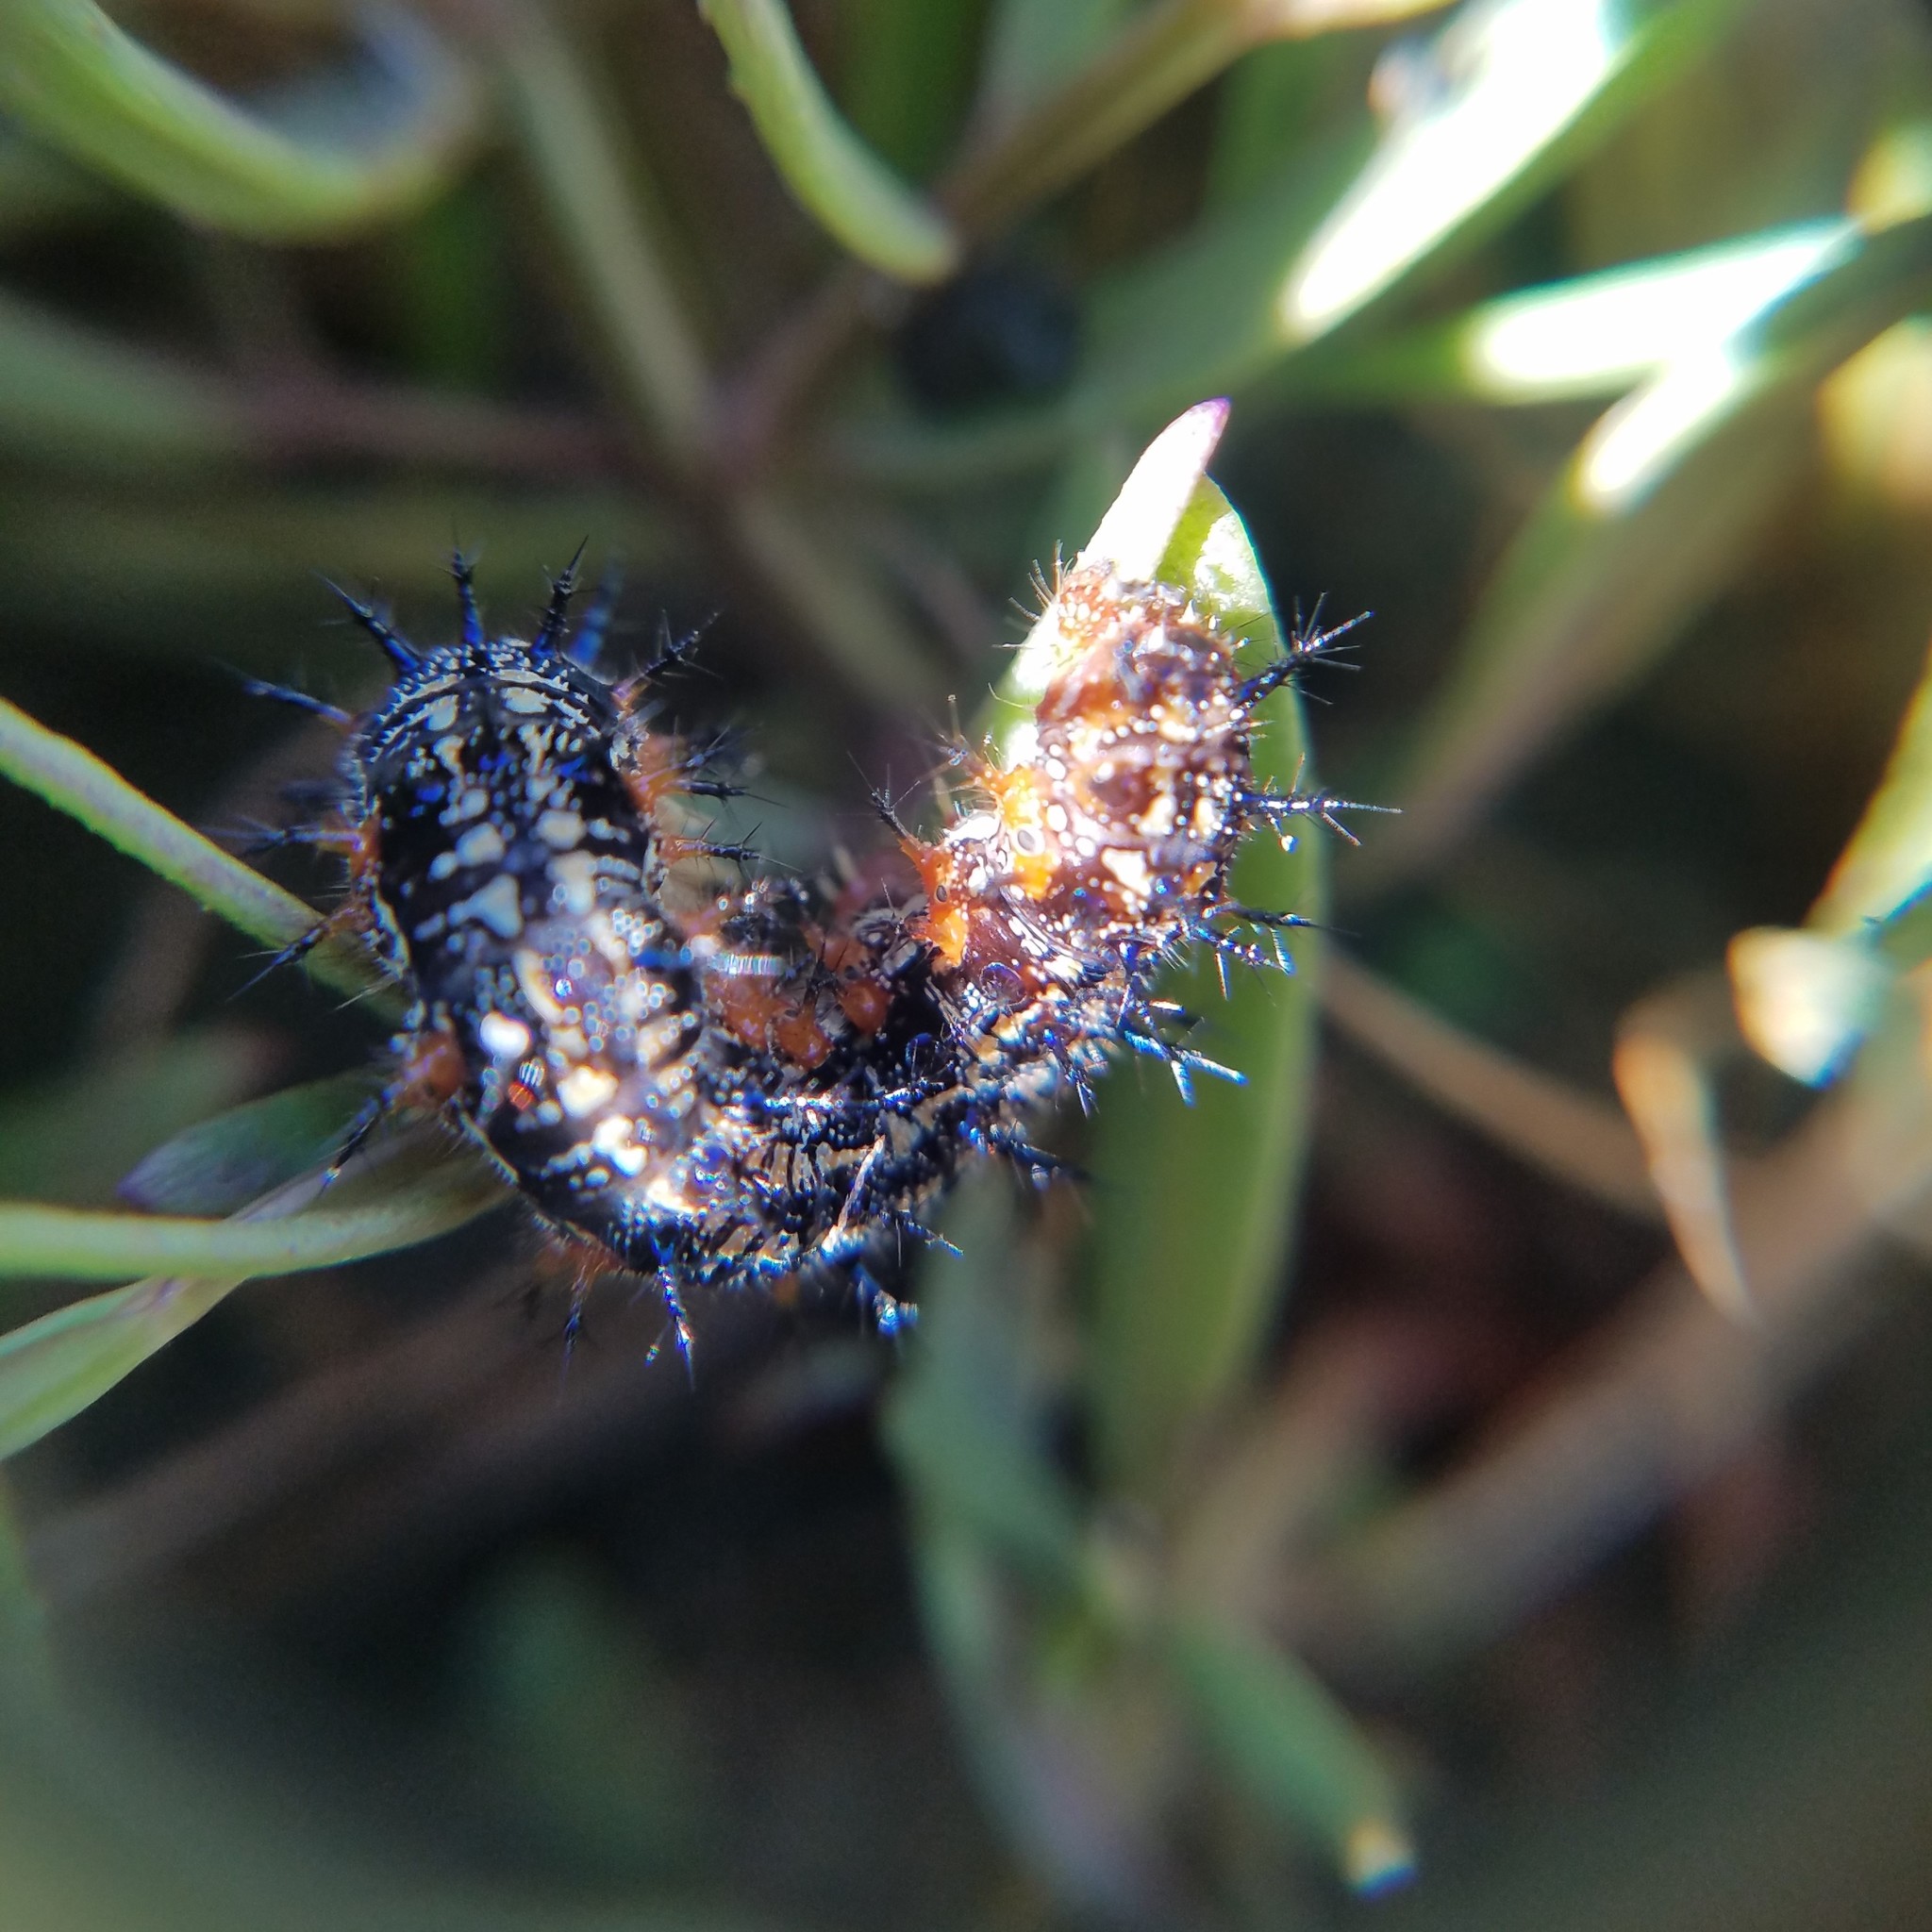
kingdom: Animalia
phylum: Arthropoda
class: Insecta
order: Lepidoptera
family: Nymphalidae
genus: Junonia
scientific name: Junonia coenia
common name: Common buckeye
